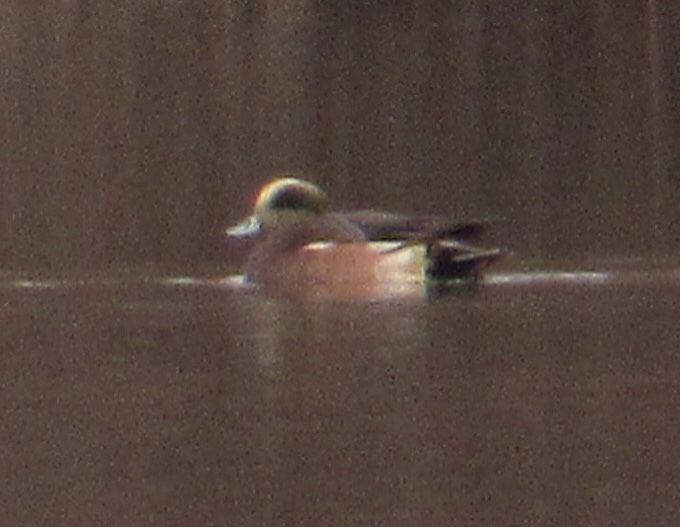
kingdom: Animalia
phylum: Chordata
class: Aves
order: Anseriformes
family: Anatidae
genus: Mareca
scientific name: Mareca americana
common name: American wigeon
